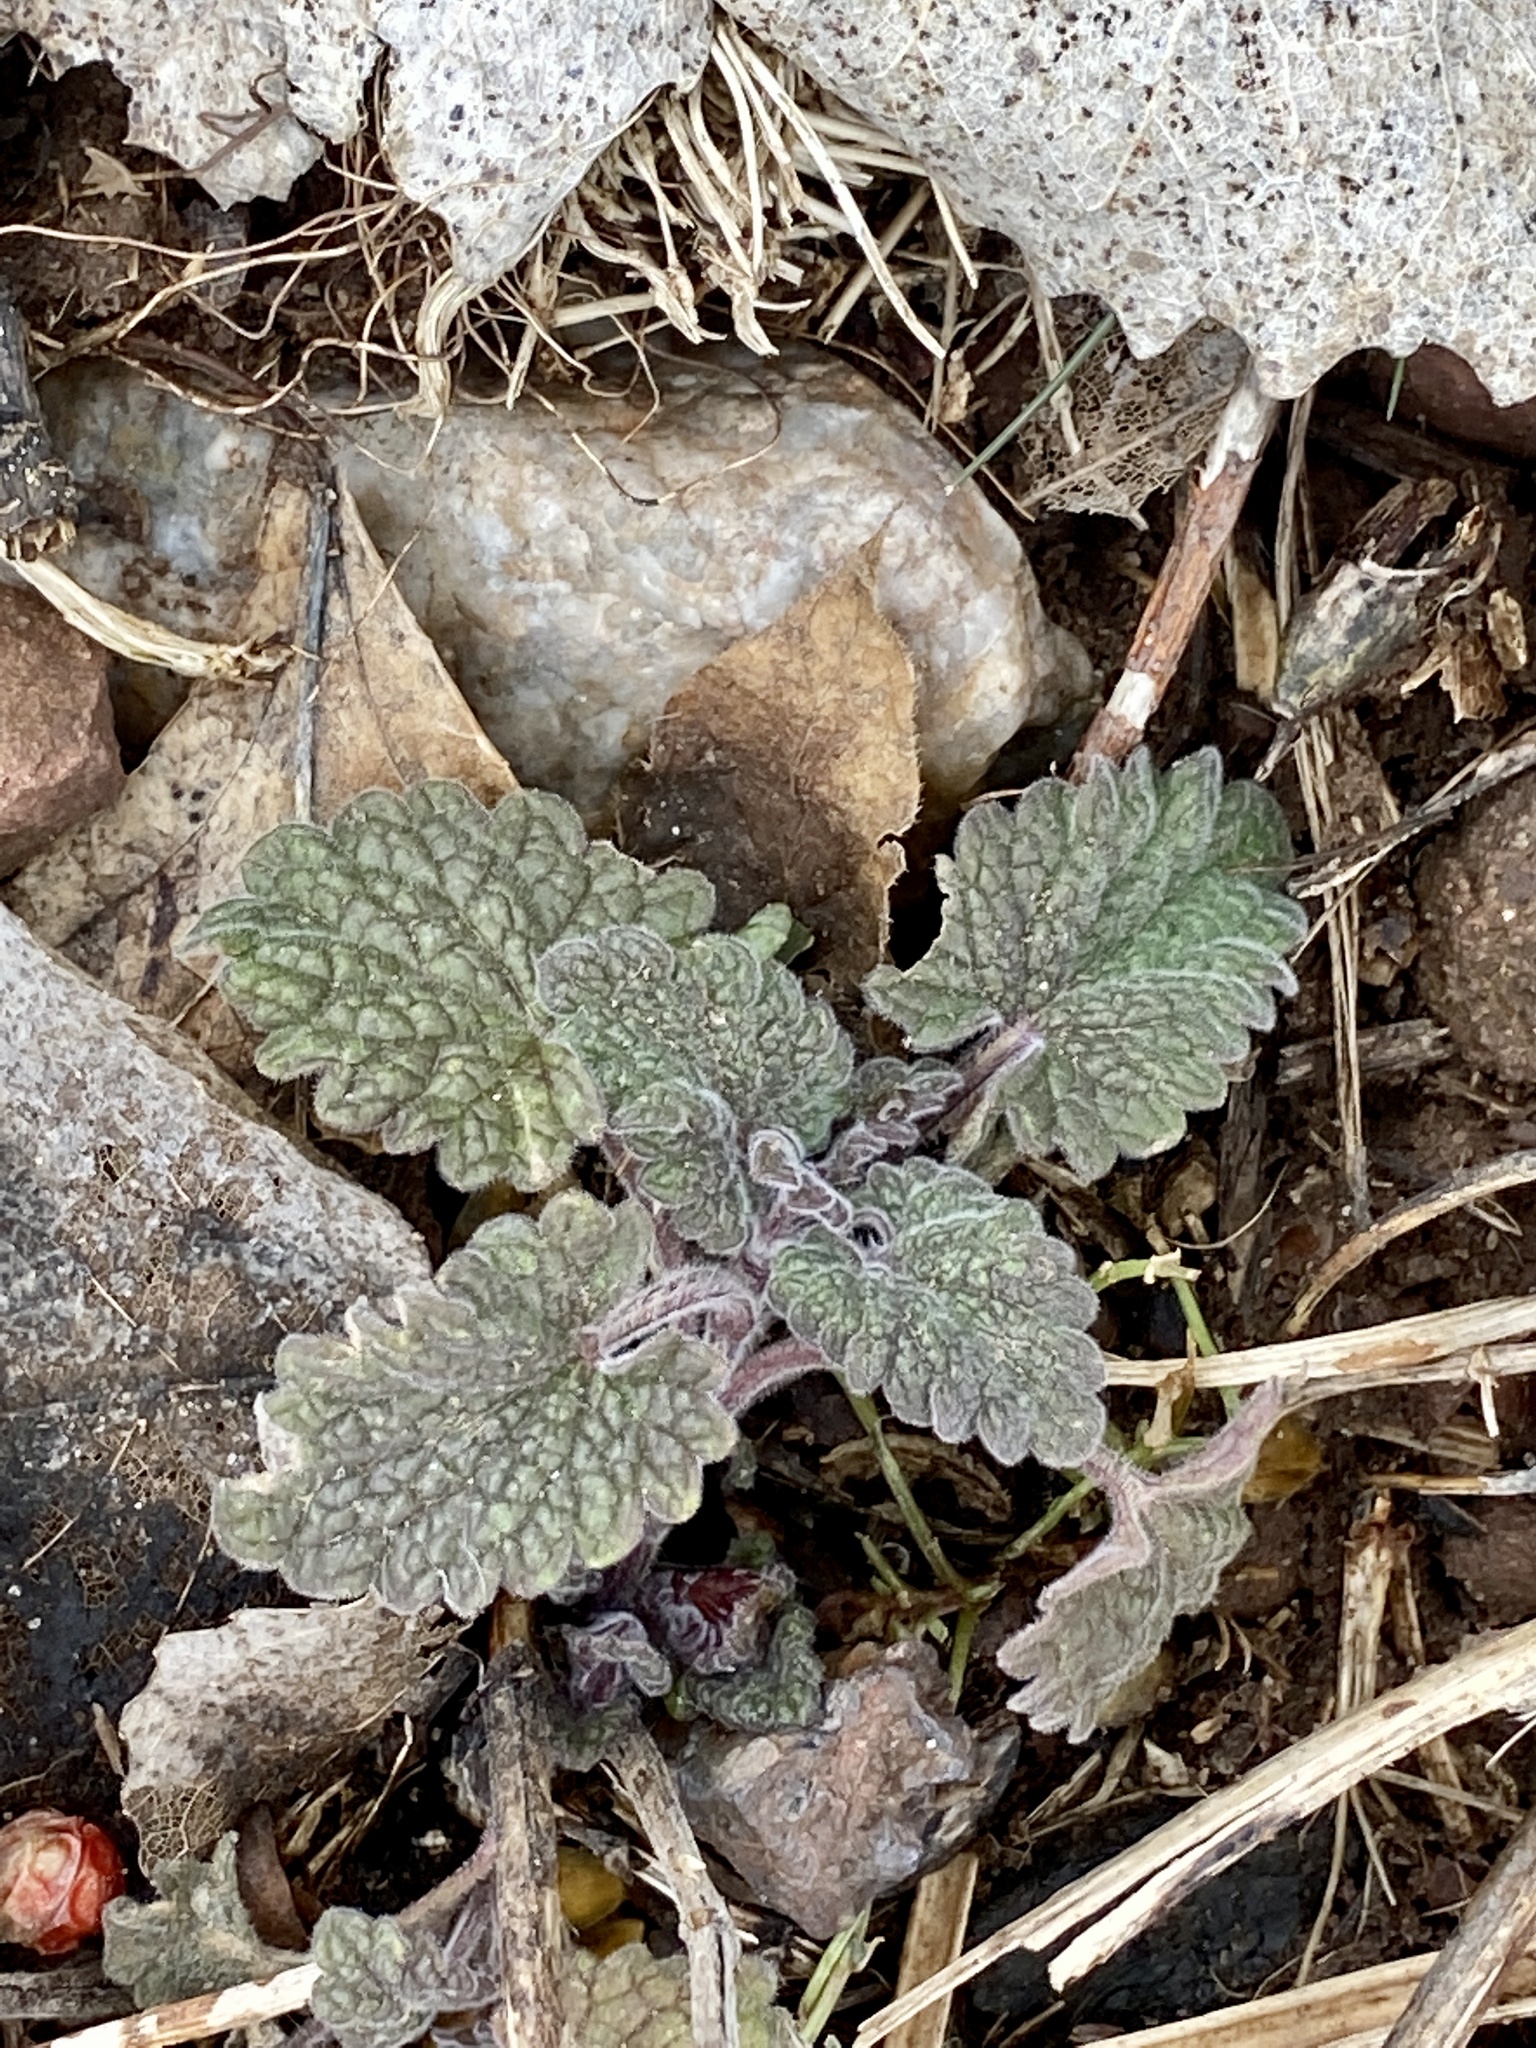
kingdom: Plantae
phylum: Tracheophyta
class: Magnoliopsida
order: Lamiales
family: Lamiaceae
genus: Nepeta
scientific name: Nepeta cataria
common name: Catnip
